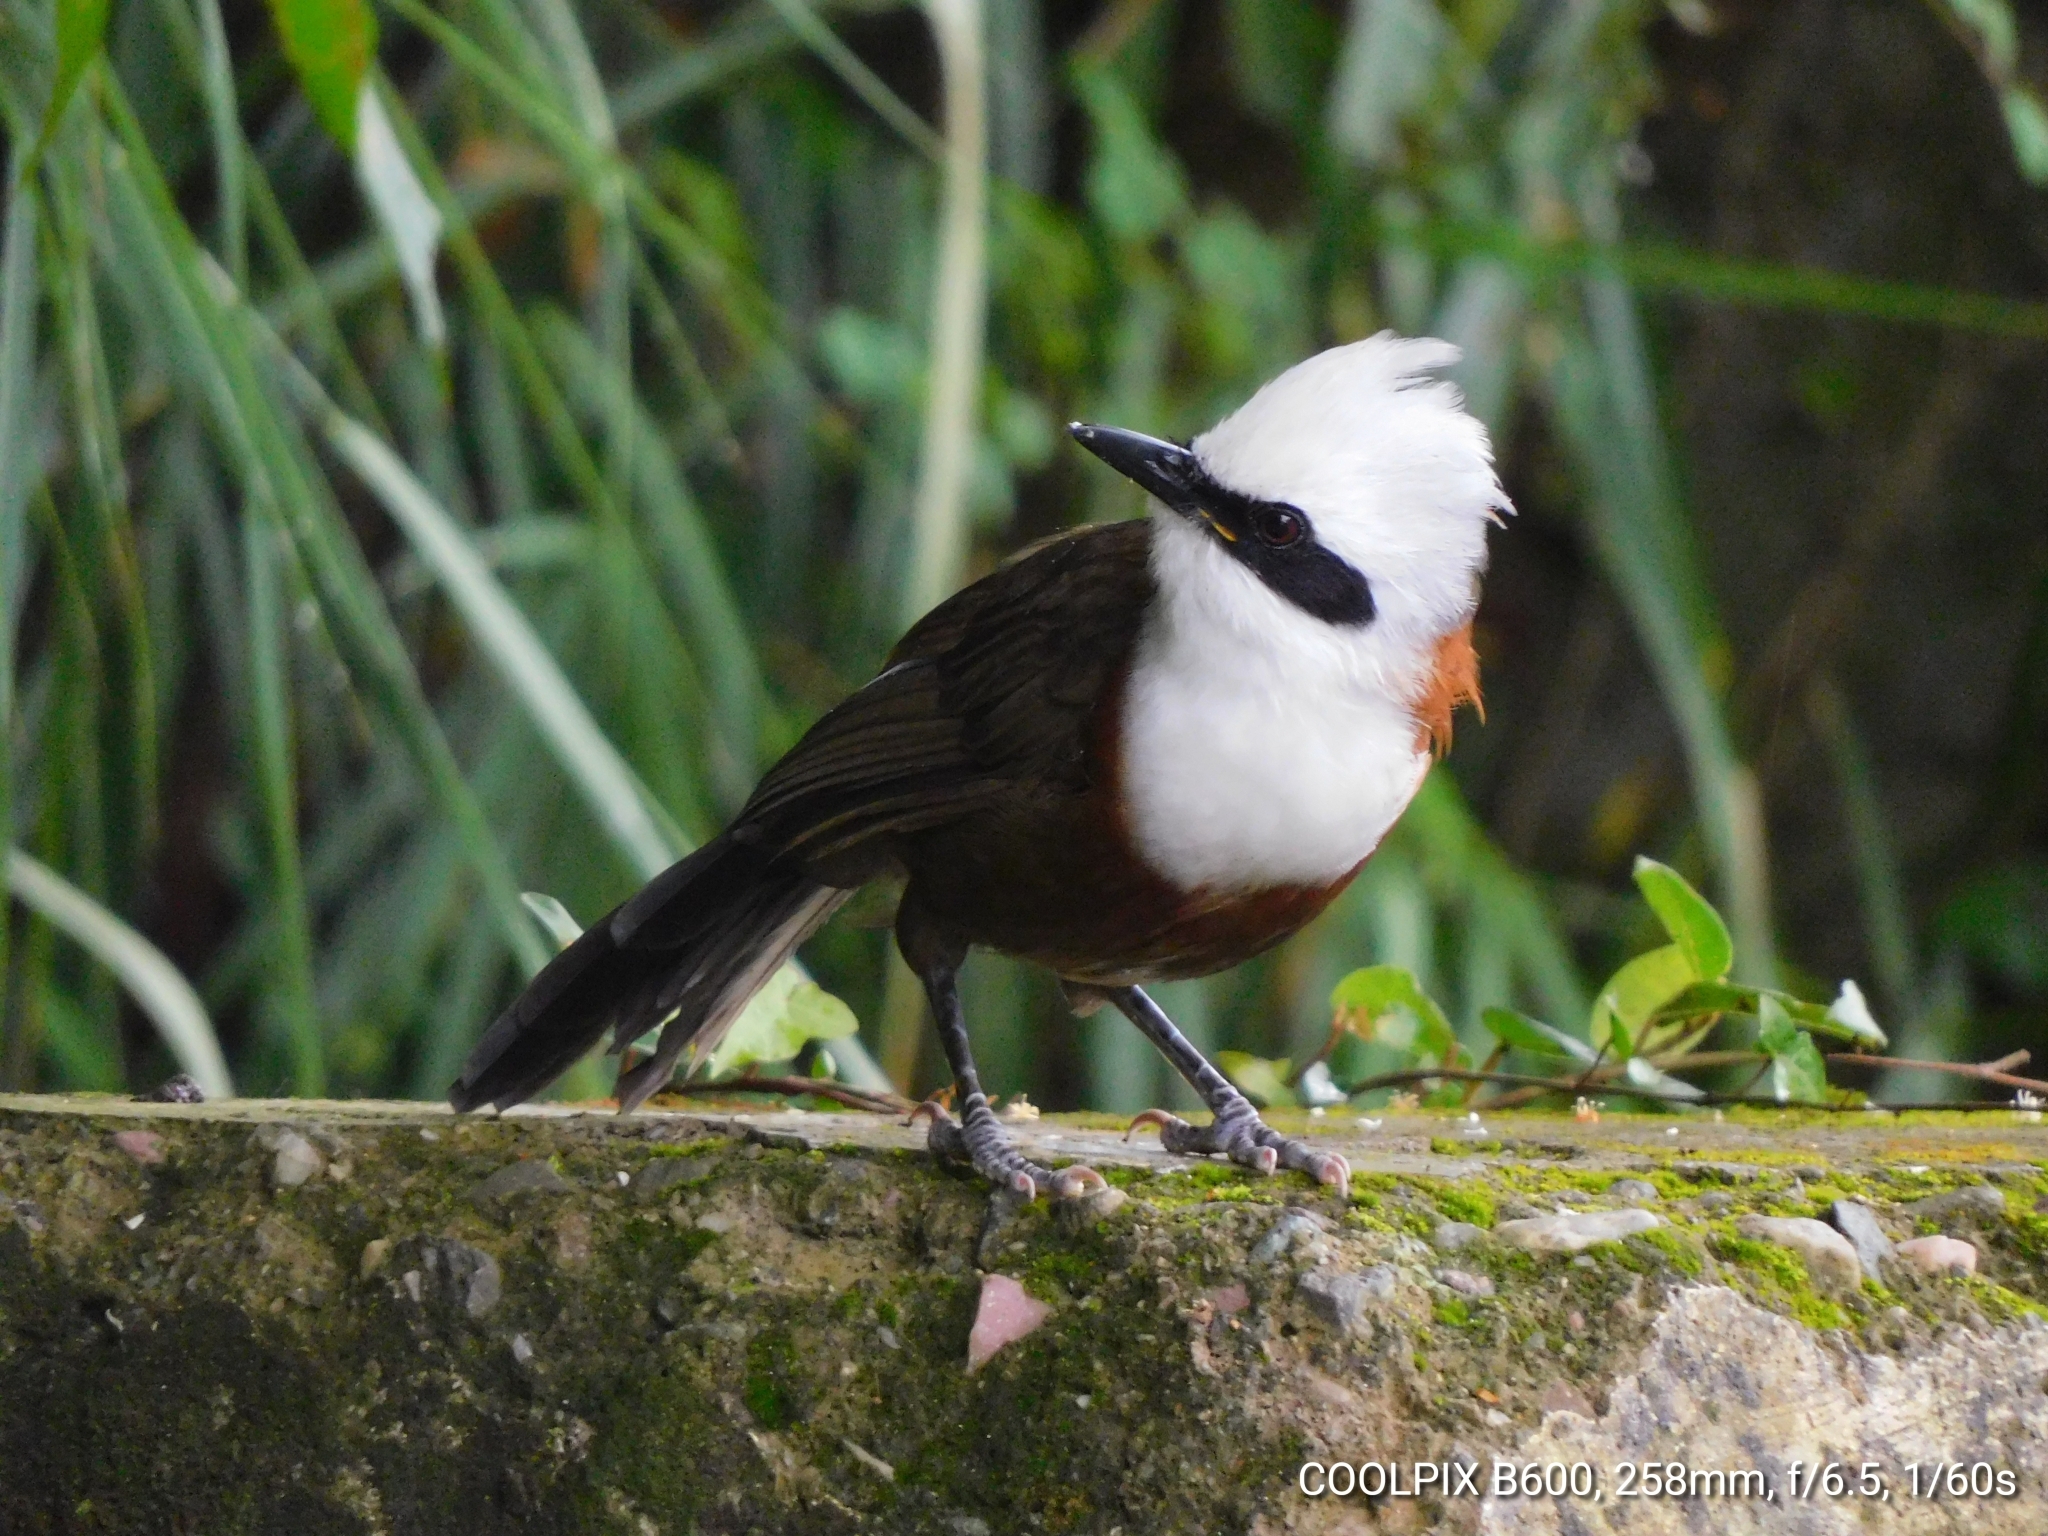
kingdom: Animalia
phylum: Chordata
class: Aves
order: Passeriformes
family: Leiothrichidae
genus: Garrulax
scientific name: Garrulax leucolophus
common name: White-crested laughingthrush
